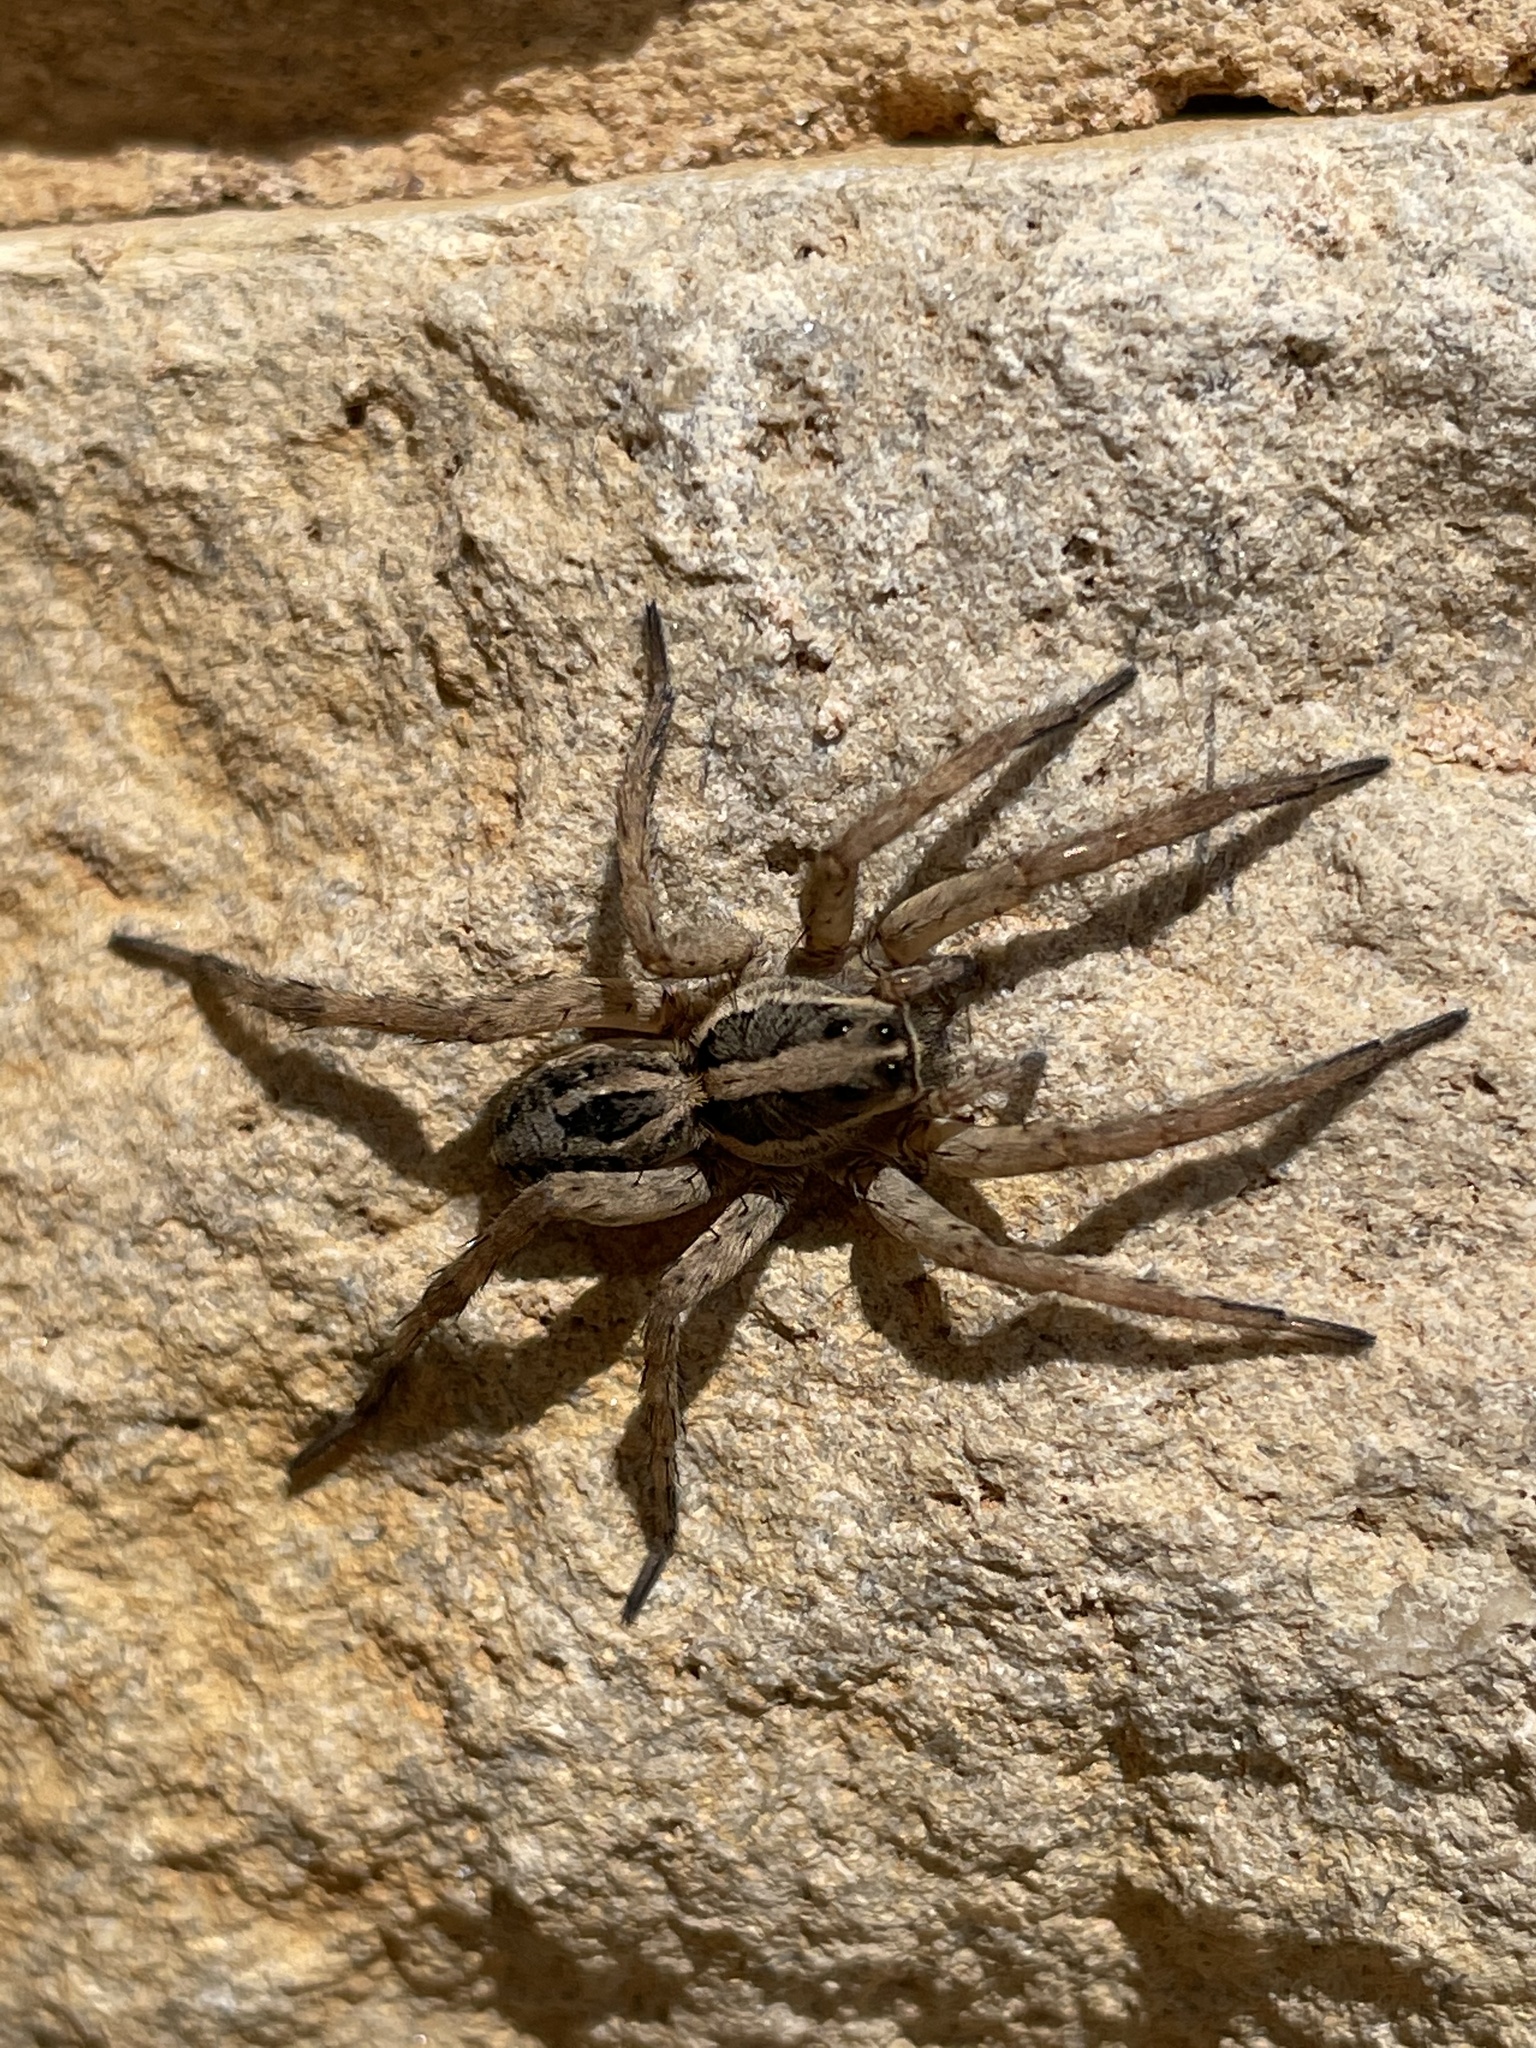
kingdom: Animalia
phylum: Arthropoda
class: Arachnida
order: Araneae
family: Lycosidae
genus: Schizocosa
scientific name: Schizocosa avida
